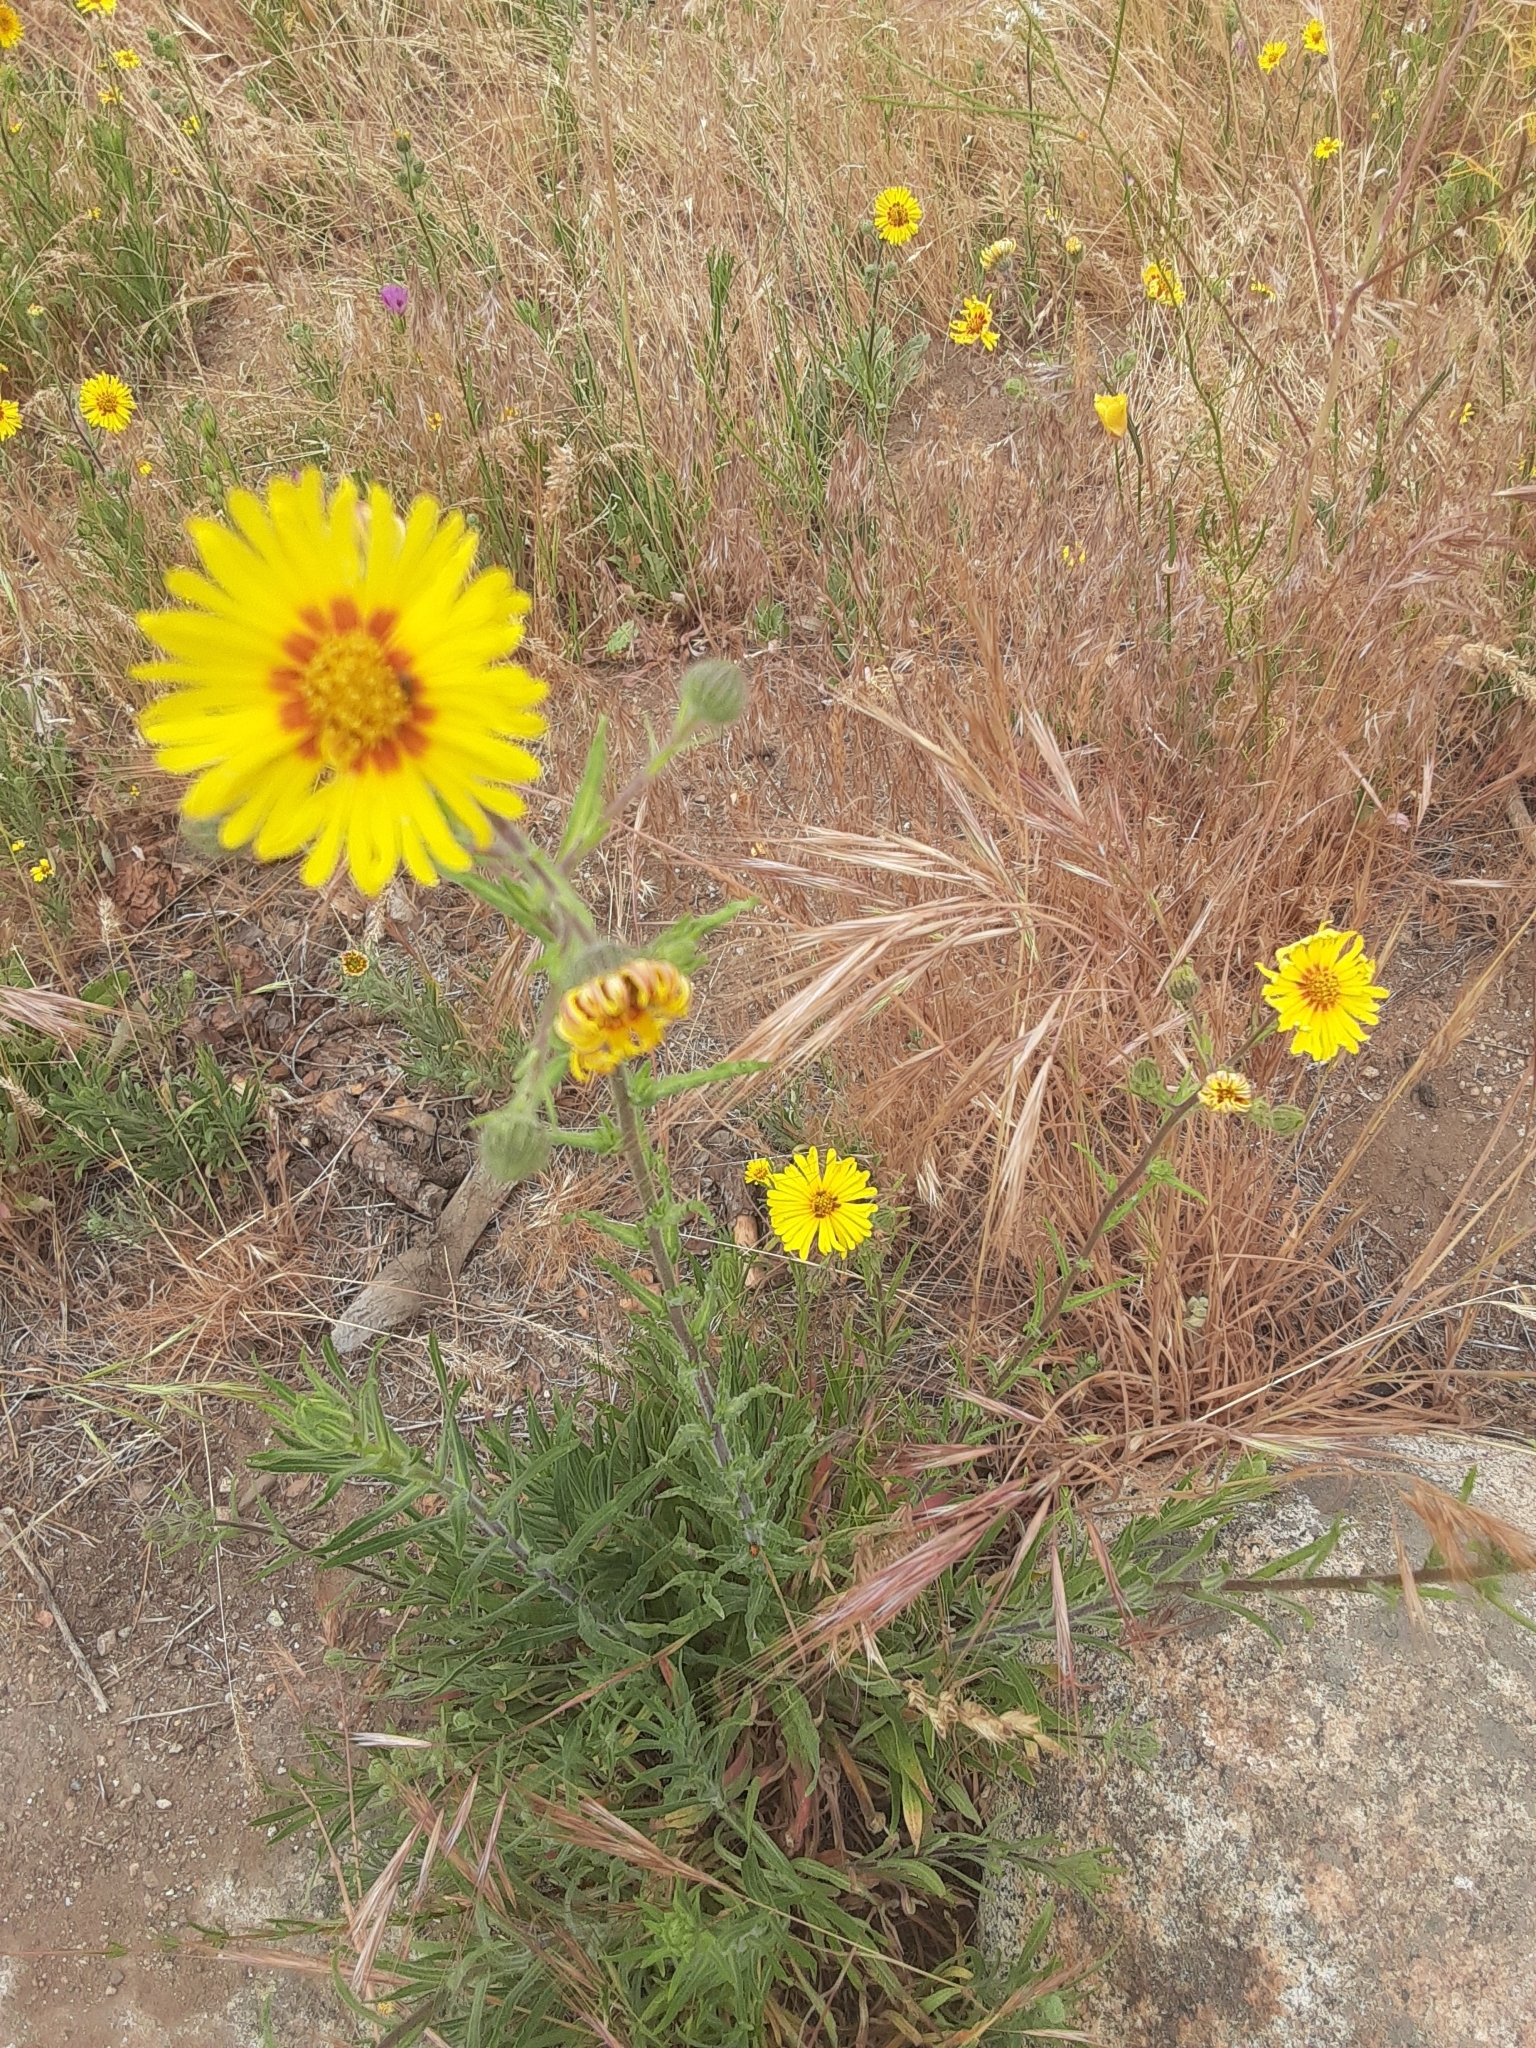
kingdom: Plantae
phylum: Tracheophyta
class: Magnoliopsida
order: Asterales
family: Asteraceae
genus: Madia
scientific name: Madia elegans
